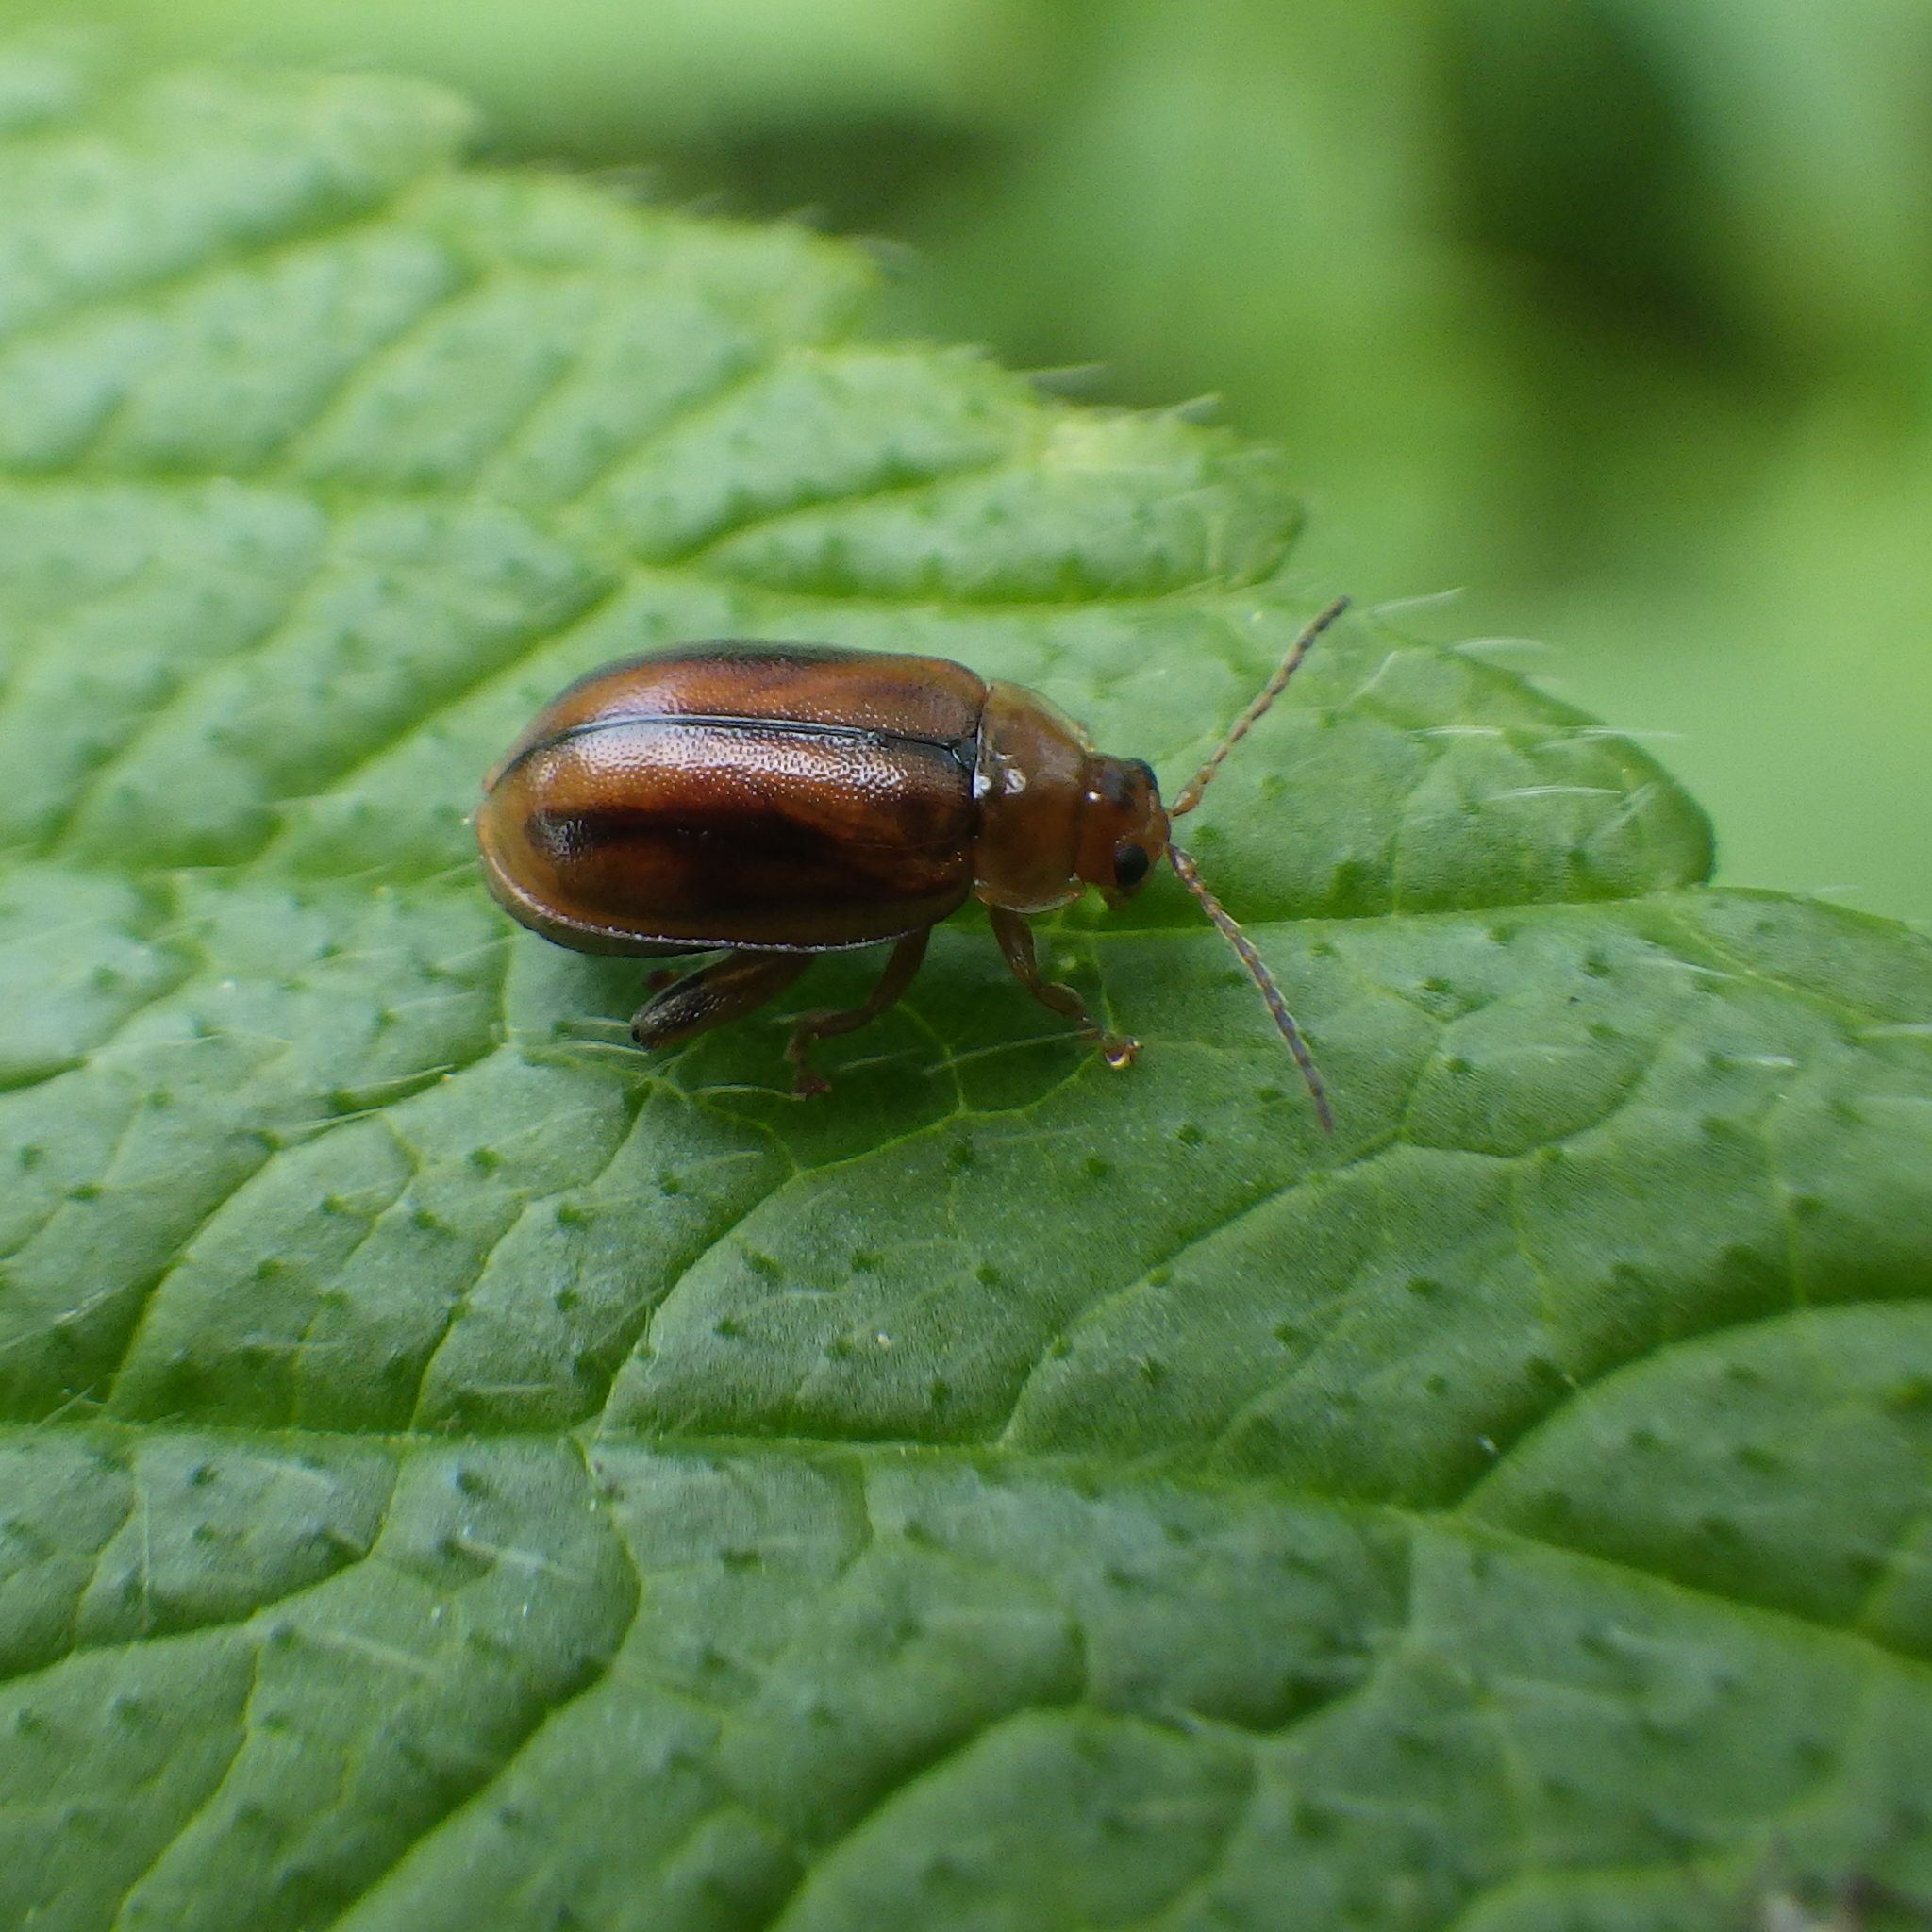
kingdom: Animalia
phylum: Arthropoda
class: Insecta
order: Coleoptera
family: Chrysomelidae
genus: Capraita
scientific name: Capraita subvittata
